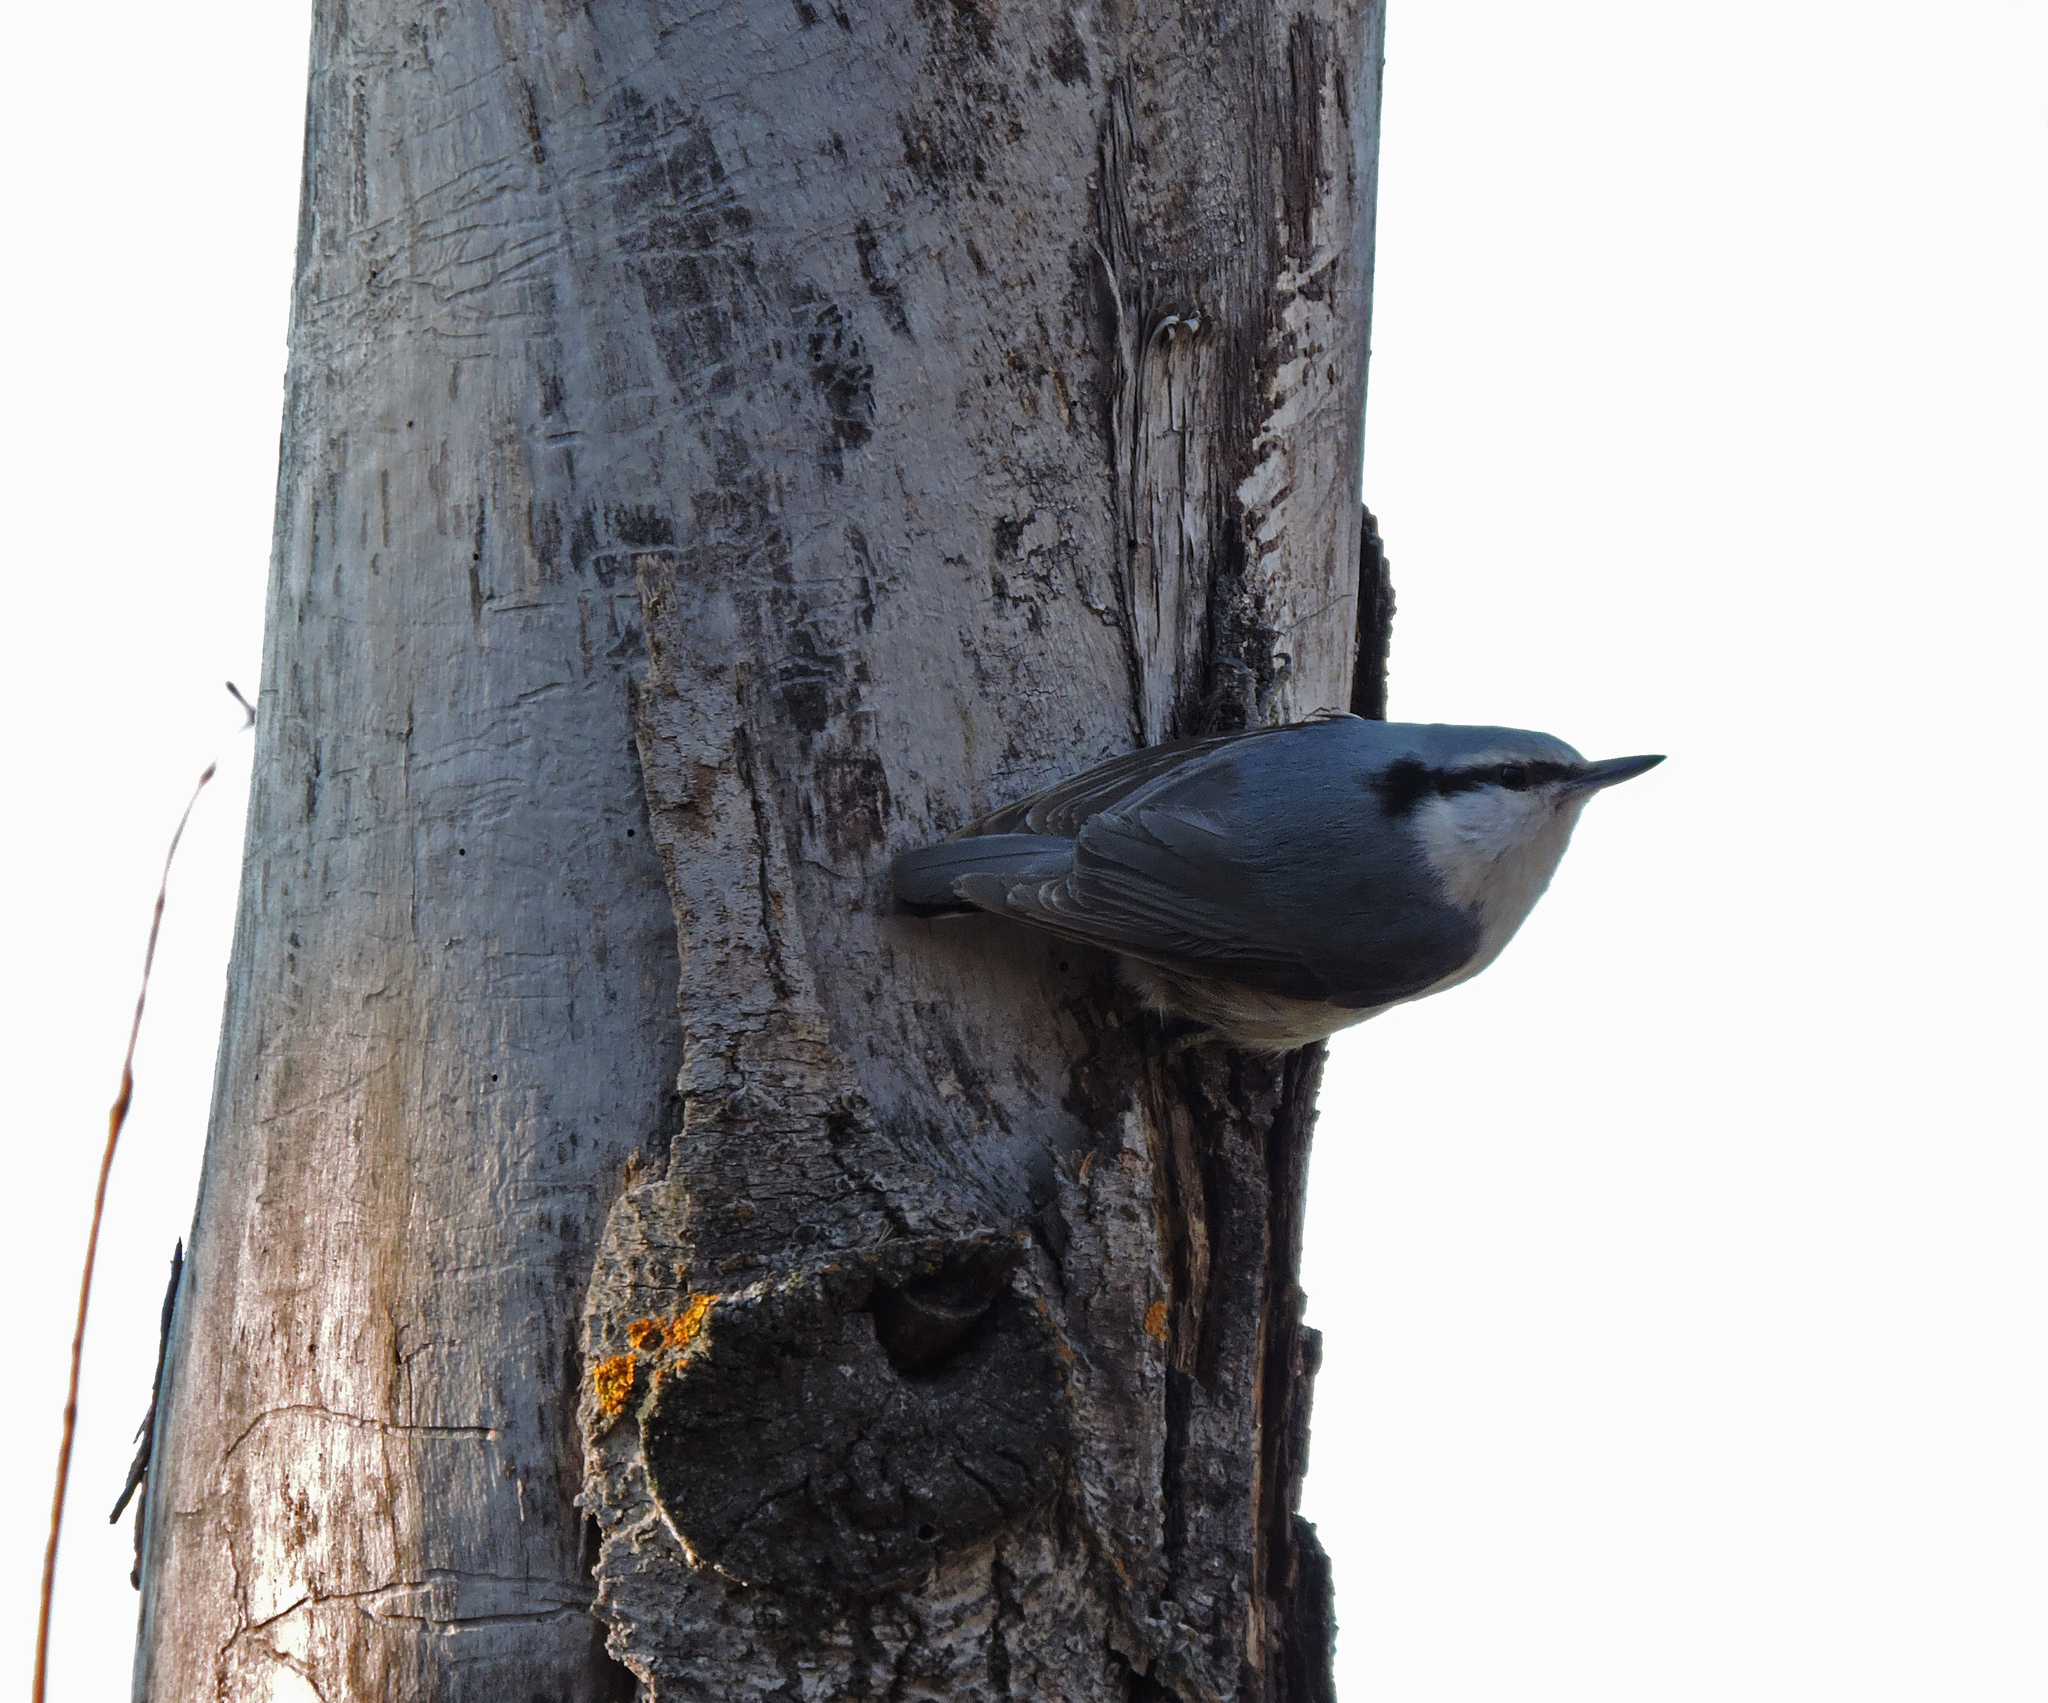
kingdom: Animalia
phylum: Chordata
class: Aves
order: Passeriformes
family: Sittidae
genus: Sitta
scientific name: Sitta europaea
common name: Eurasian nuthatch
